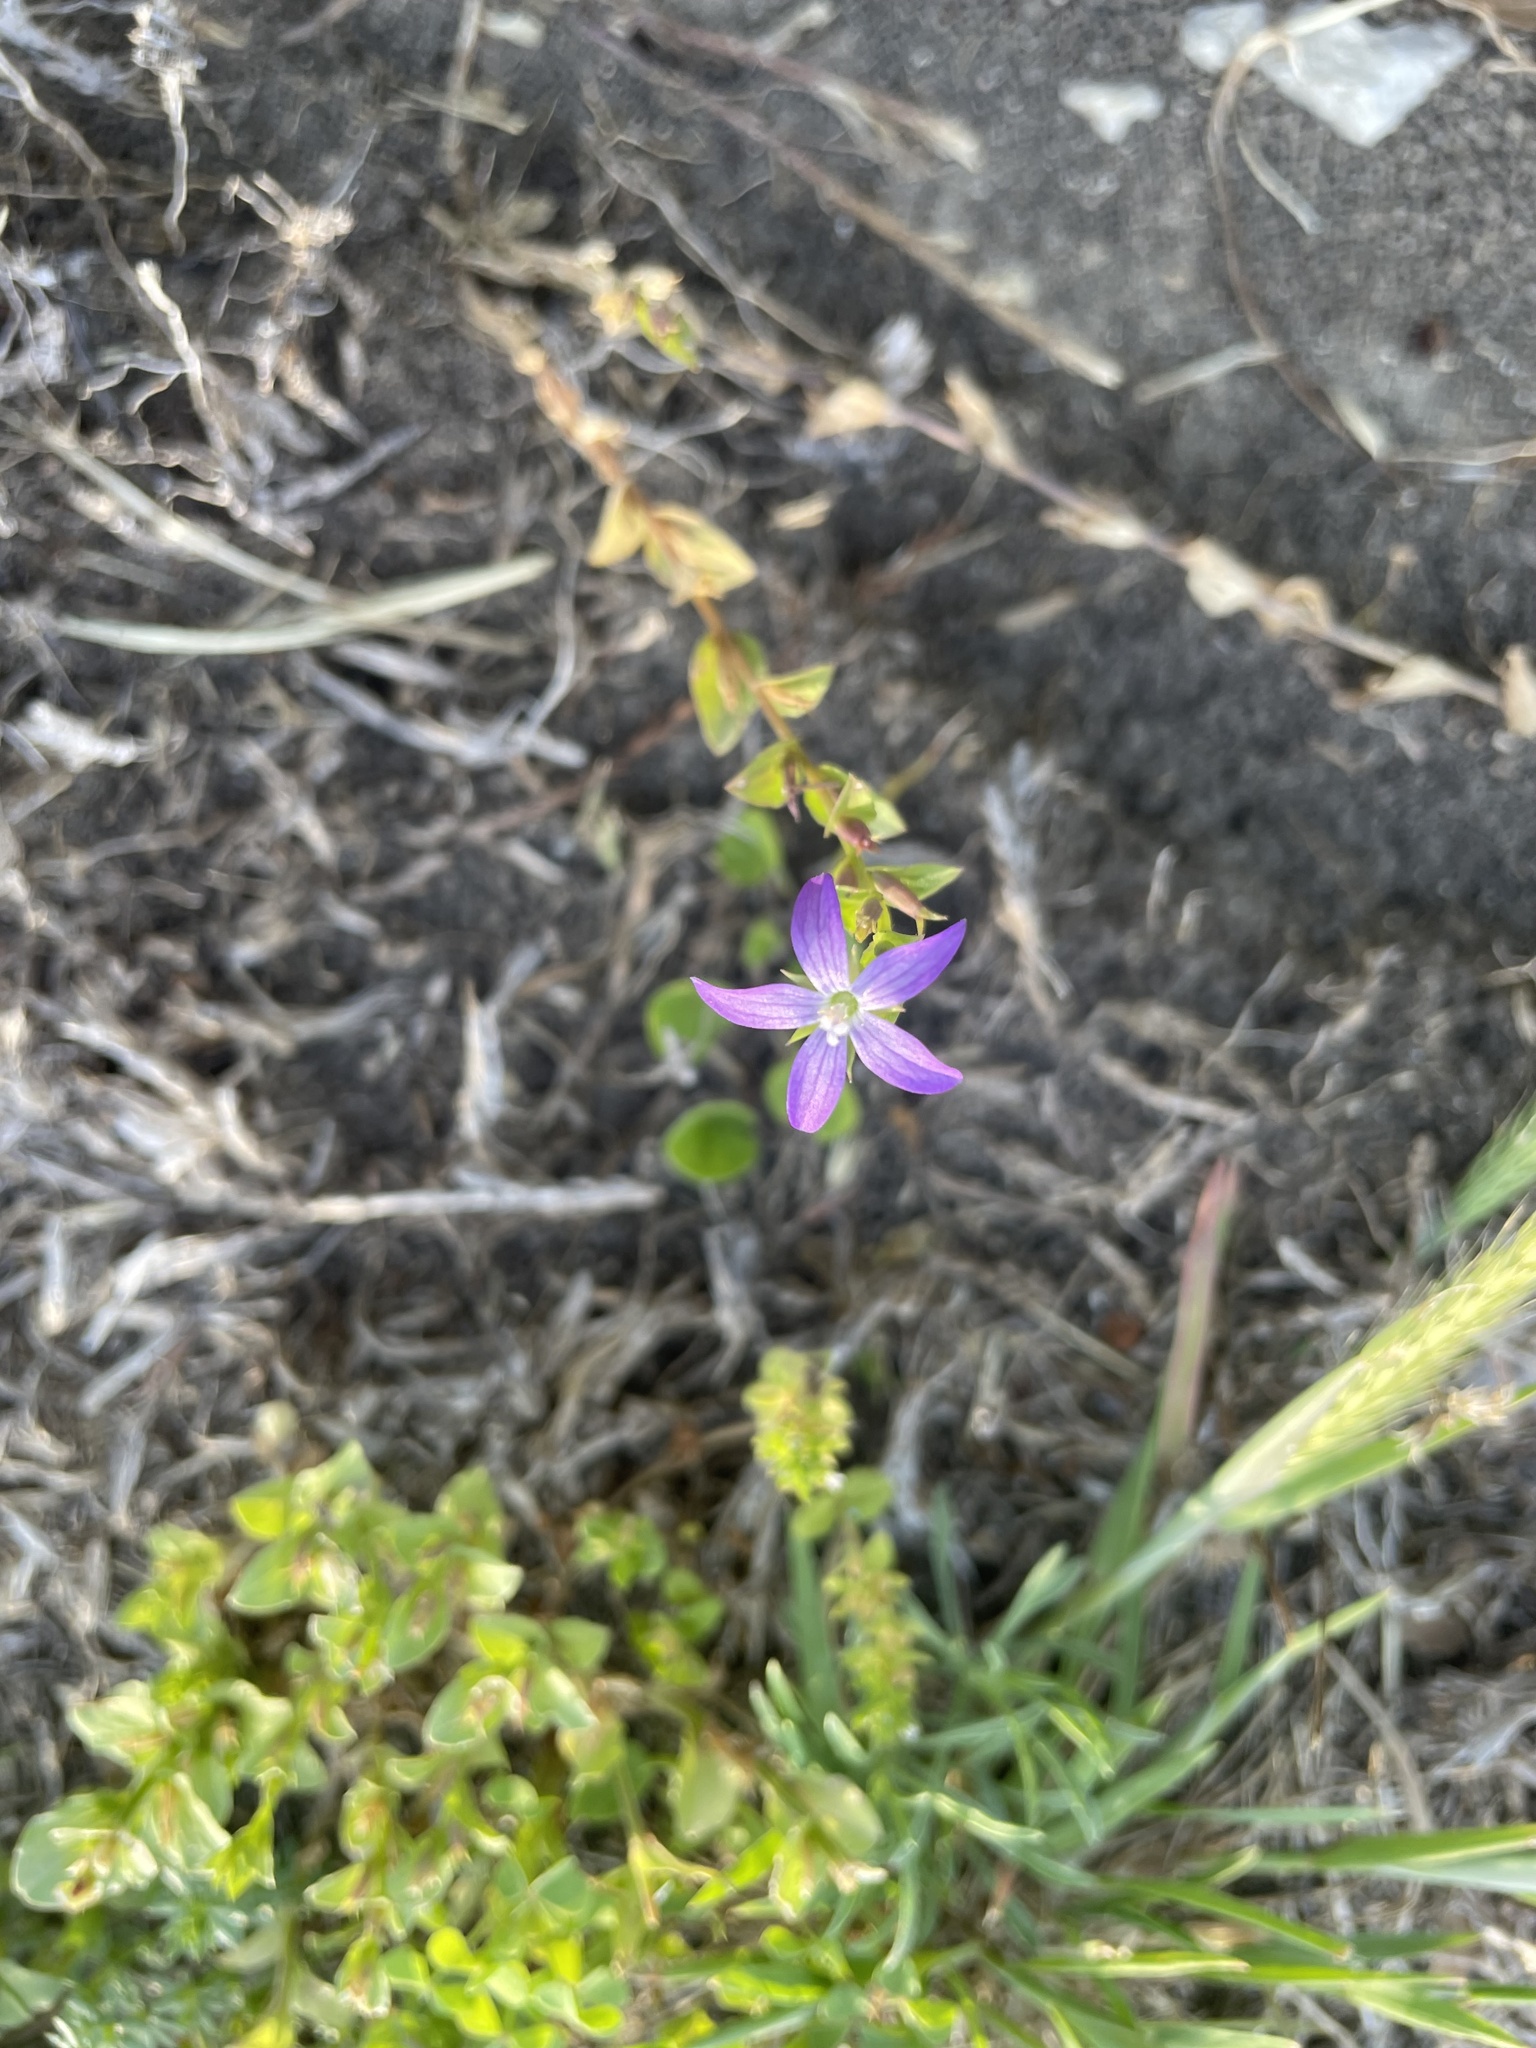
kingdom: Plantae
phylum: Tracheophyta
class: Magnoliopsida
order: Asterales
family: Campanulaceae
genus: Triodanis
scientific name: Triodanis biflora
